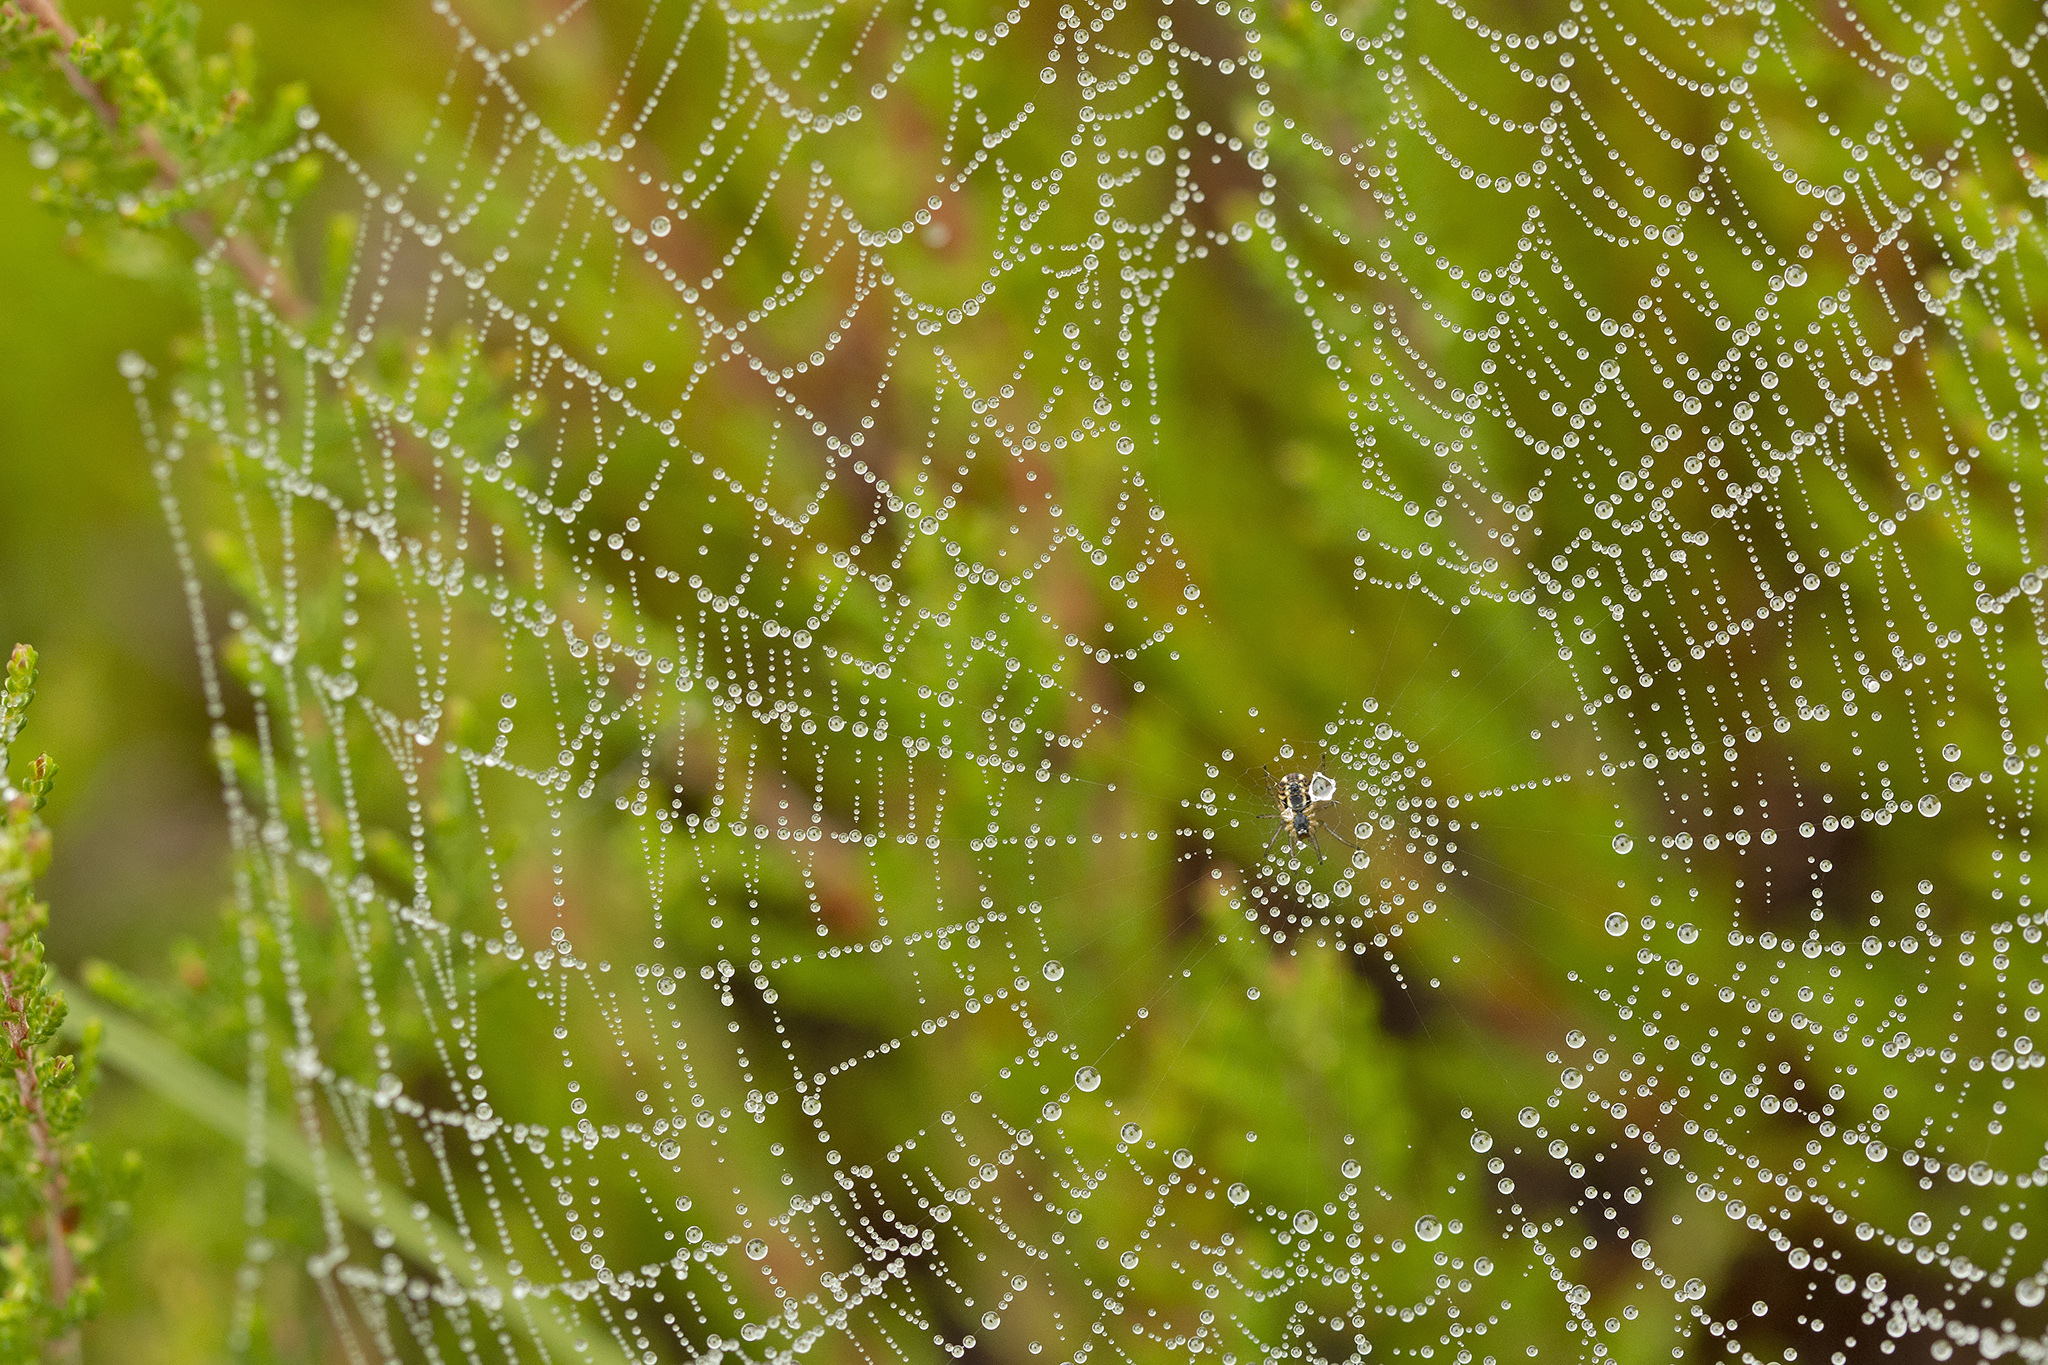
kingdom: Animalia
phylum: Arthropoda
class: Arachnida
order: Araneae
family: Araneidae
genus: Mangora
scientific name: Mangora acalypha
